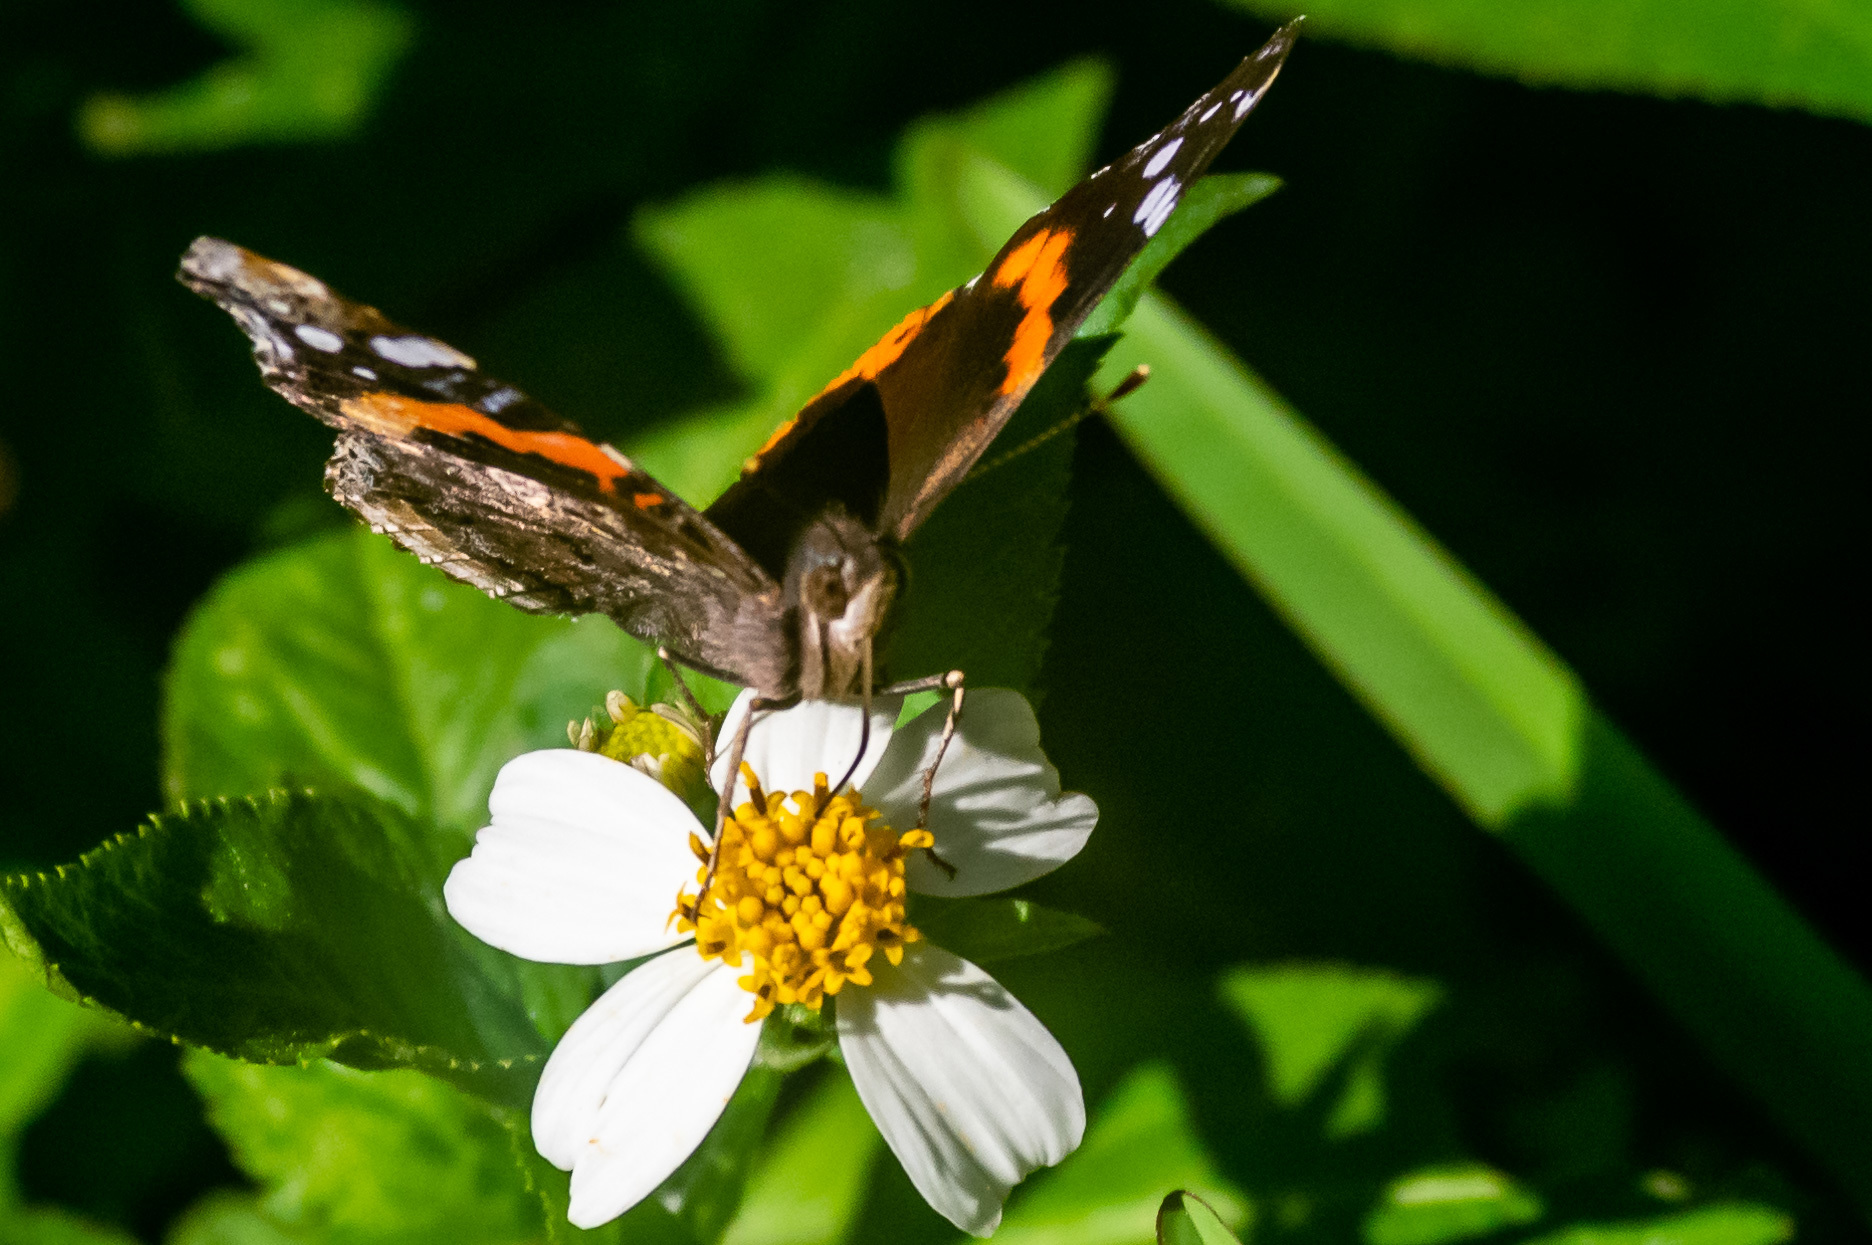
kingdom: Animalia
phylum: Arthropoda
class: Insecta
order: Lepidoptera
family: Nymphalidae
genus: Vanessa
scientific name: Vanessa atalanta
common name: Red admiral
